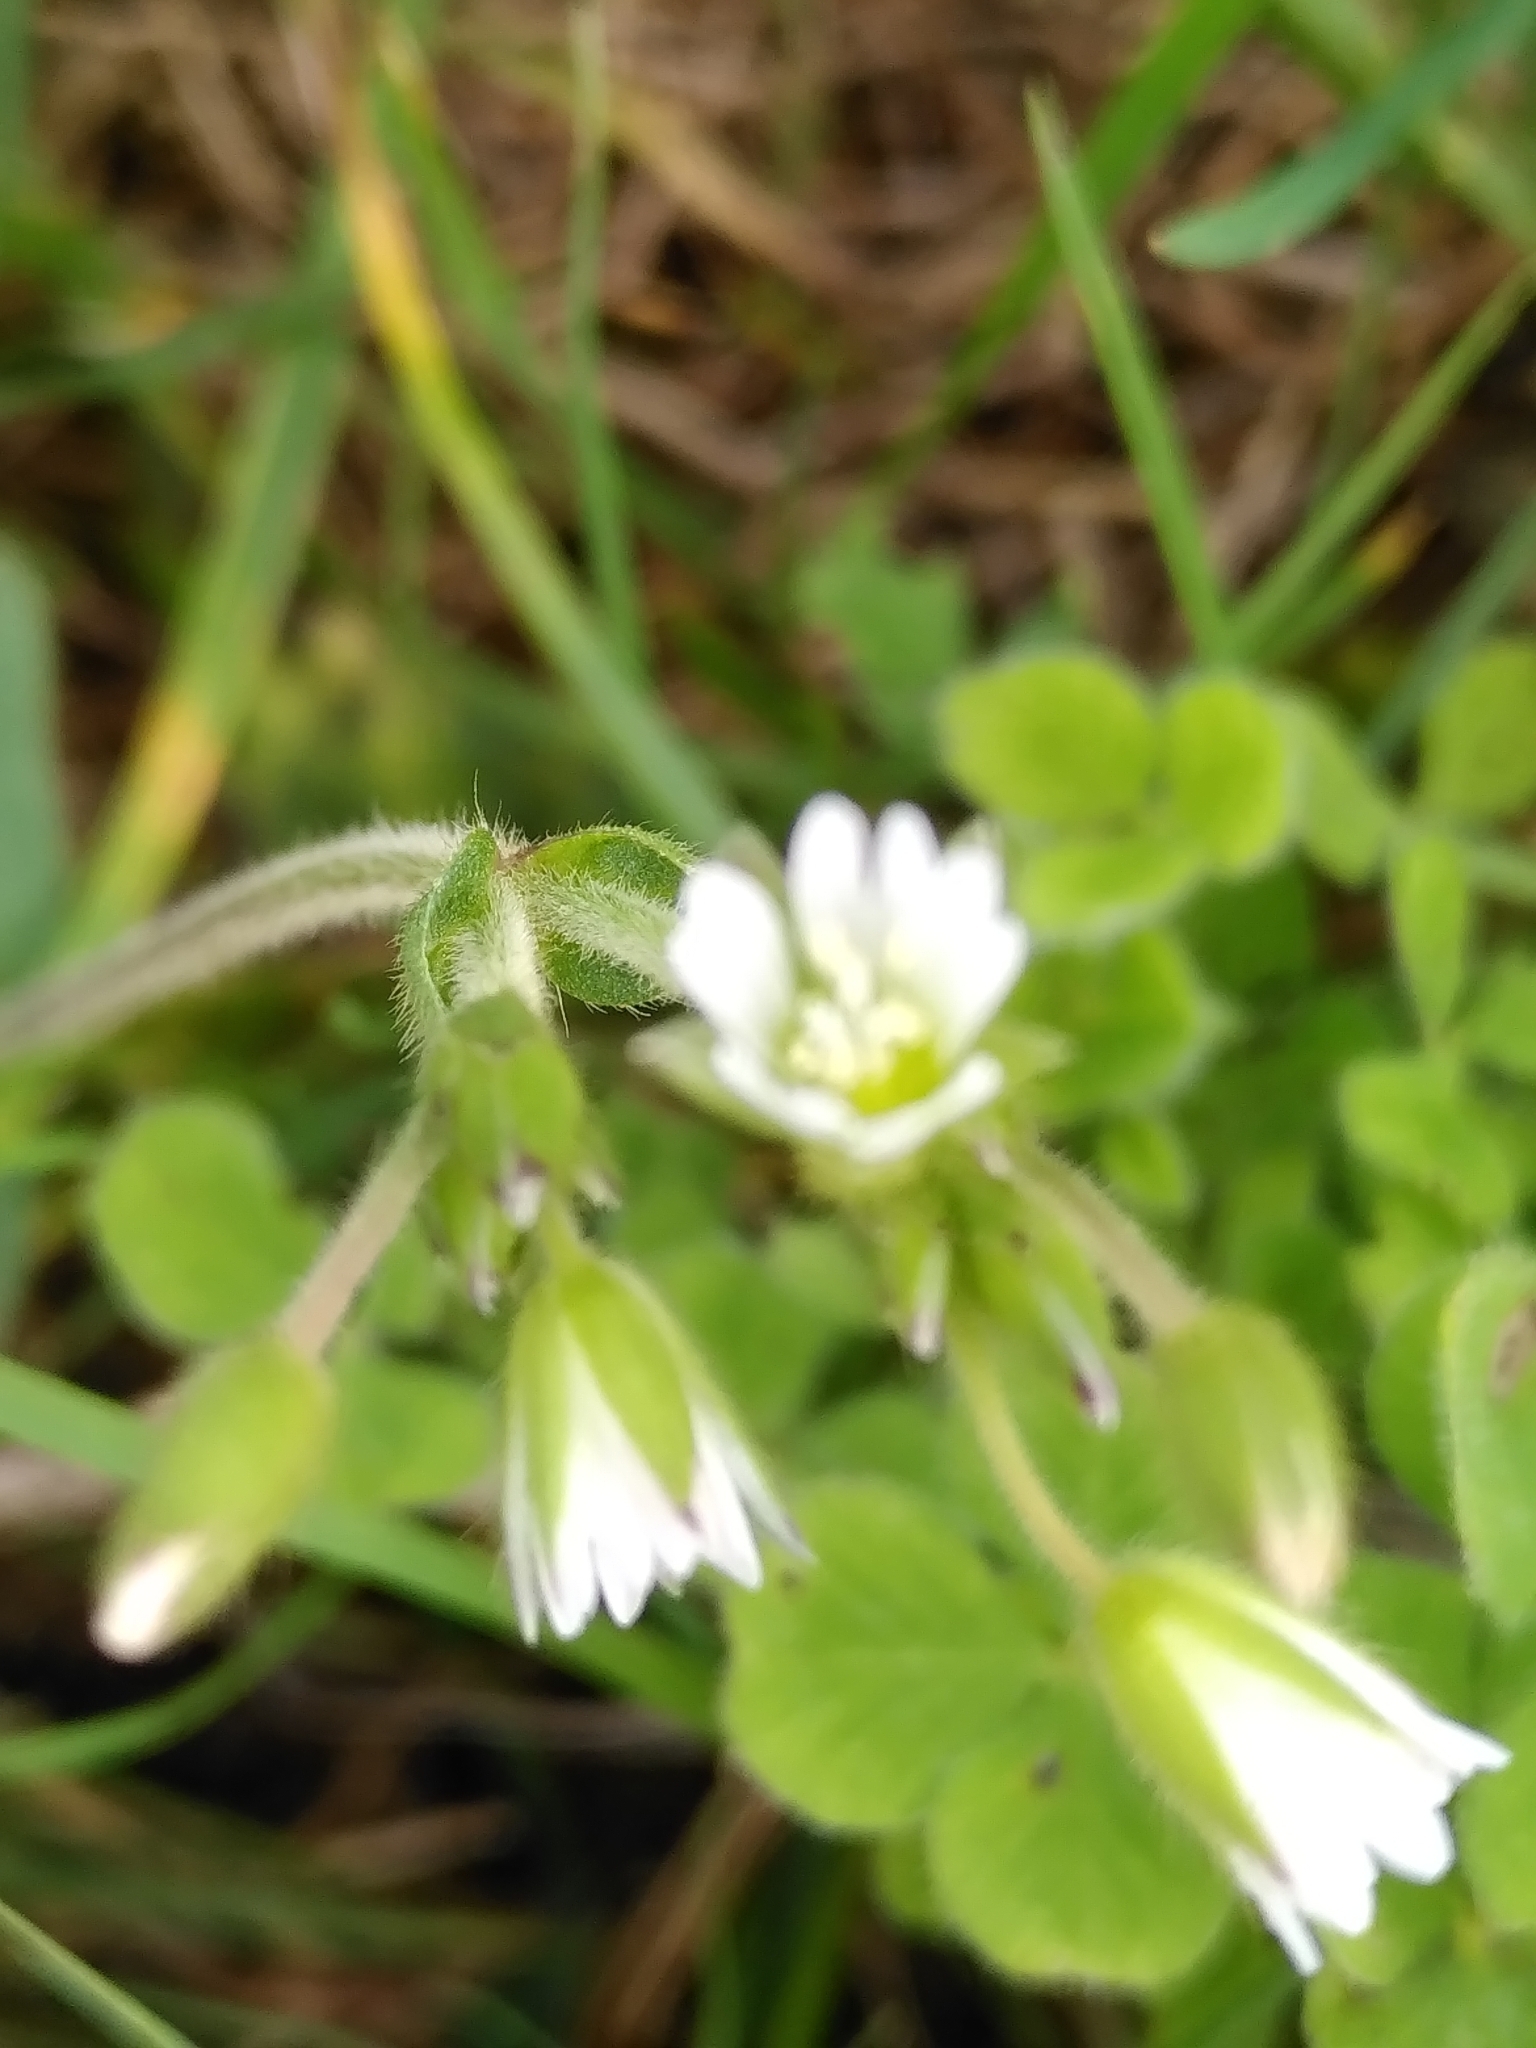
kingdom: Plantae
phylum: Tracheophyta
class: Magnoliopsida
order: Caryophyllales
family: Caryophyllaceae
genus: Cerastium
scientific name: Cerastium fontanum
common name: Common mouse-ear
